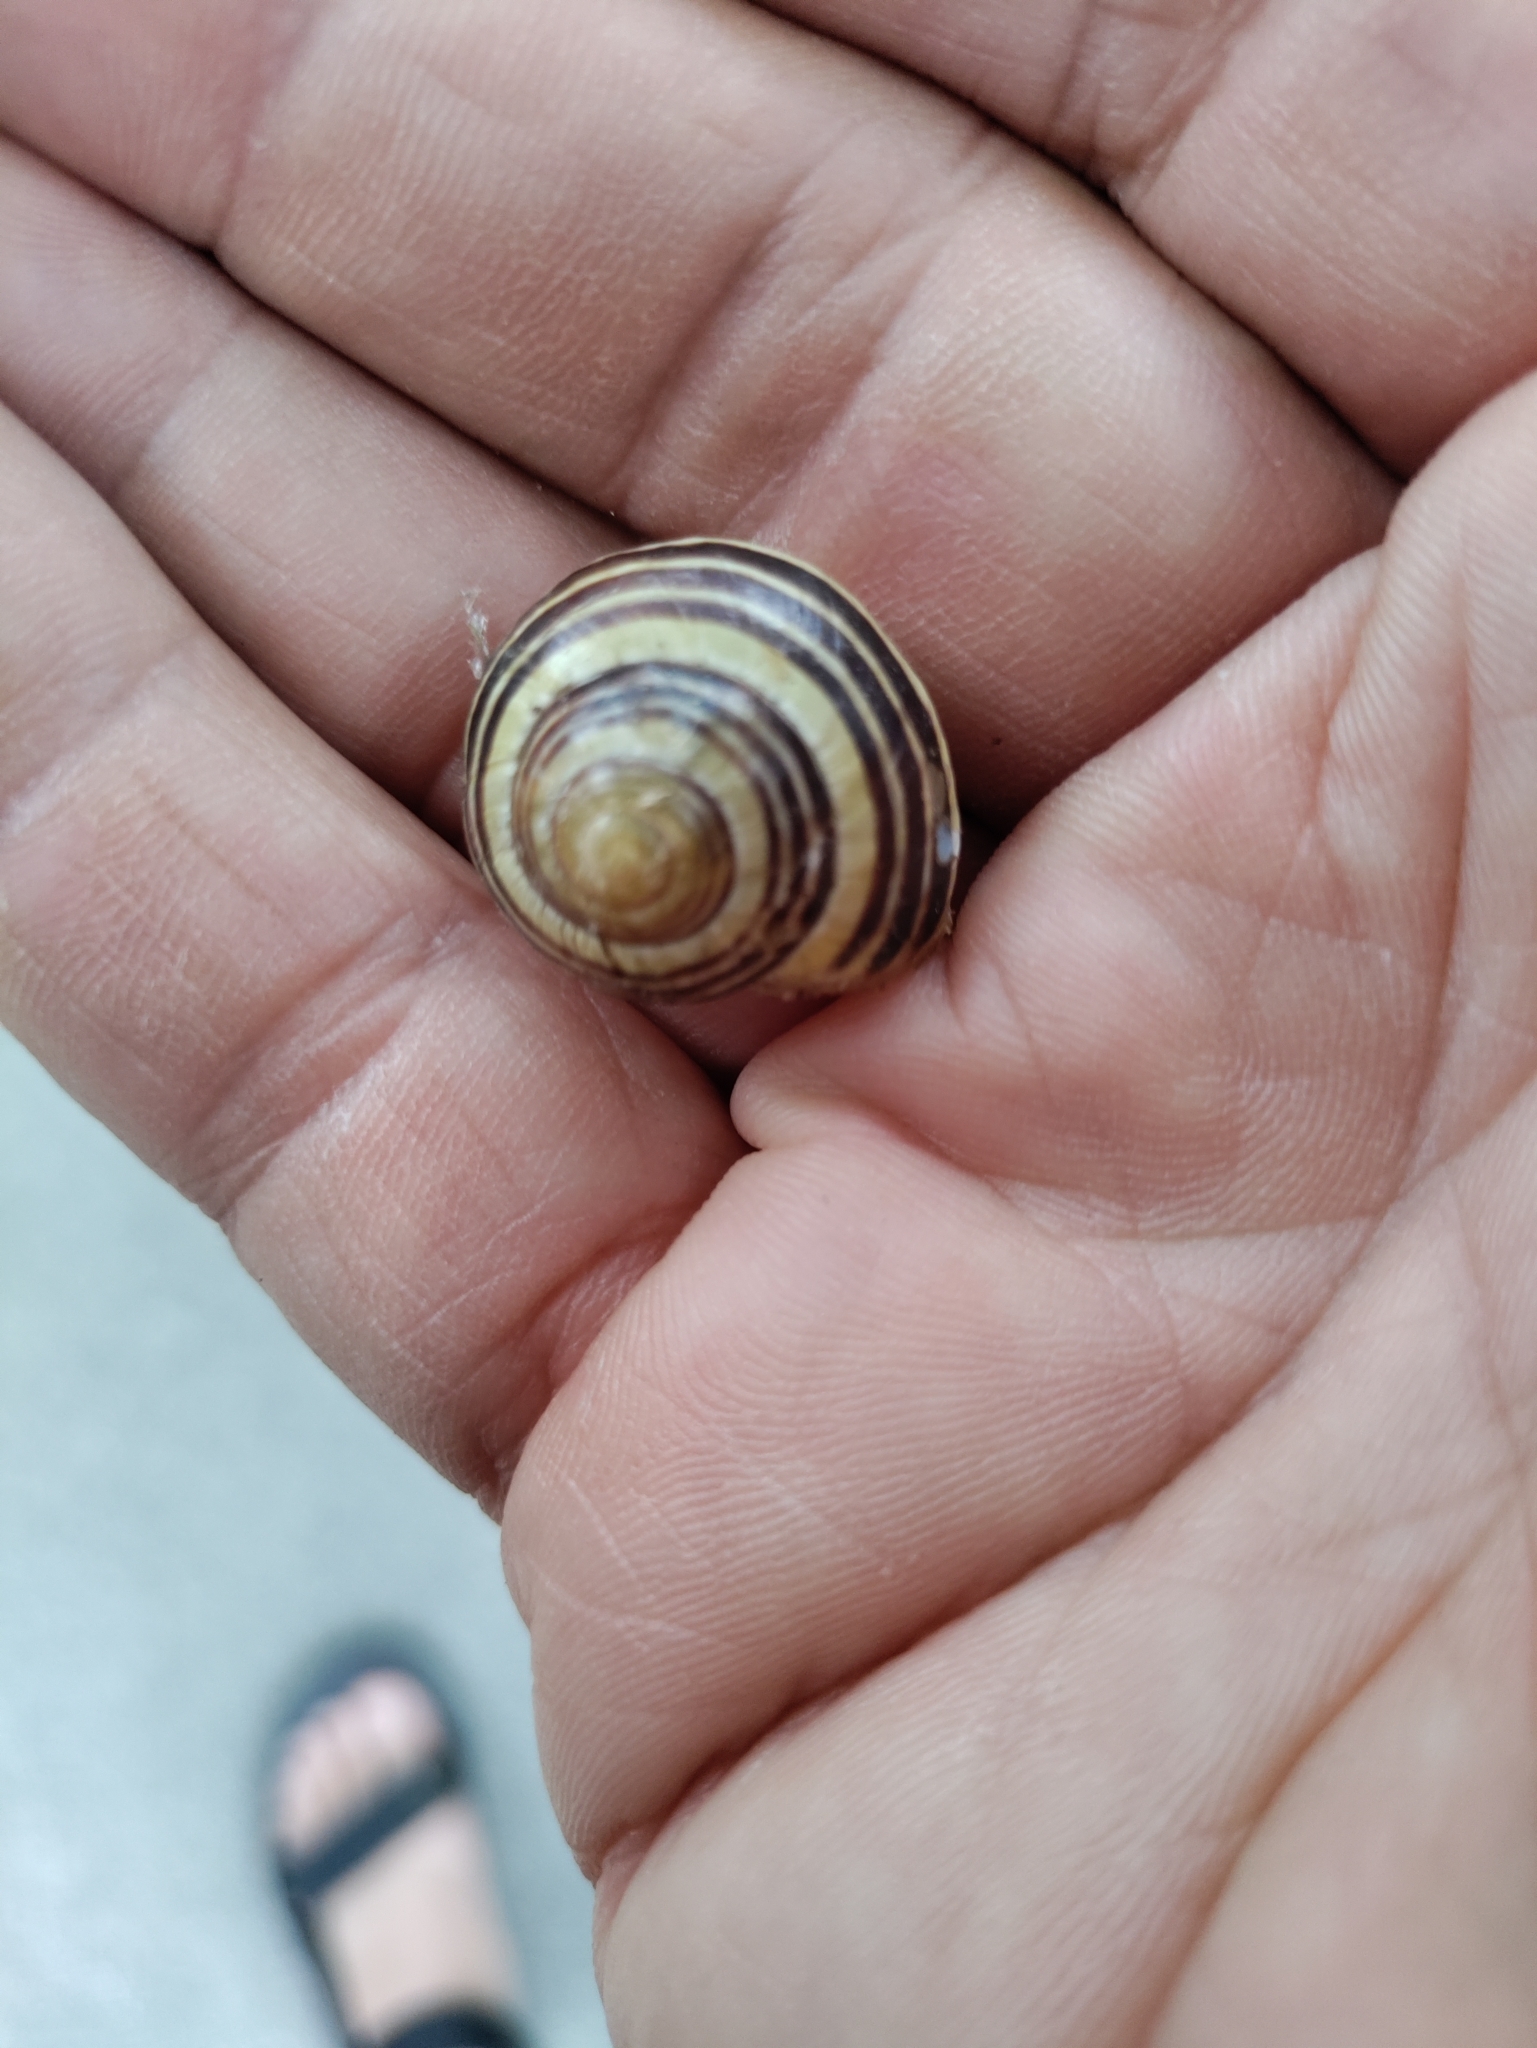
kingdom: Animalia
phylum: Mollusca
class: Gastropoda
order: Stylommatophora
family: Helicidae
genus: Cepaea
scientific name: Cepaea nemoralis
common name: Grovesnail
